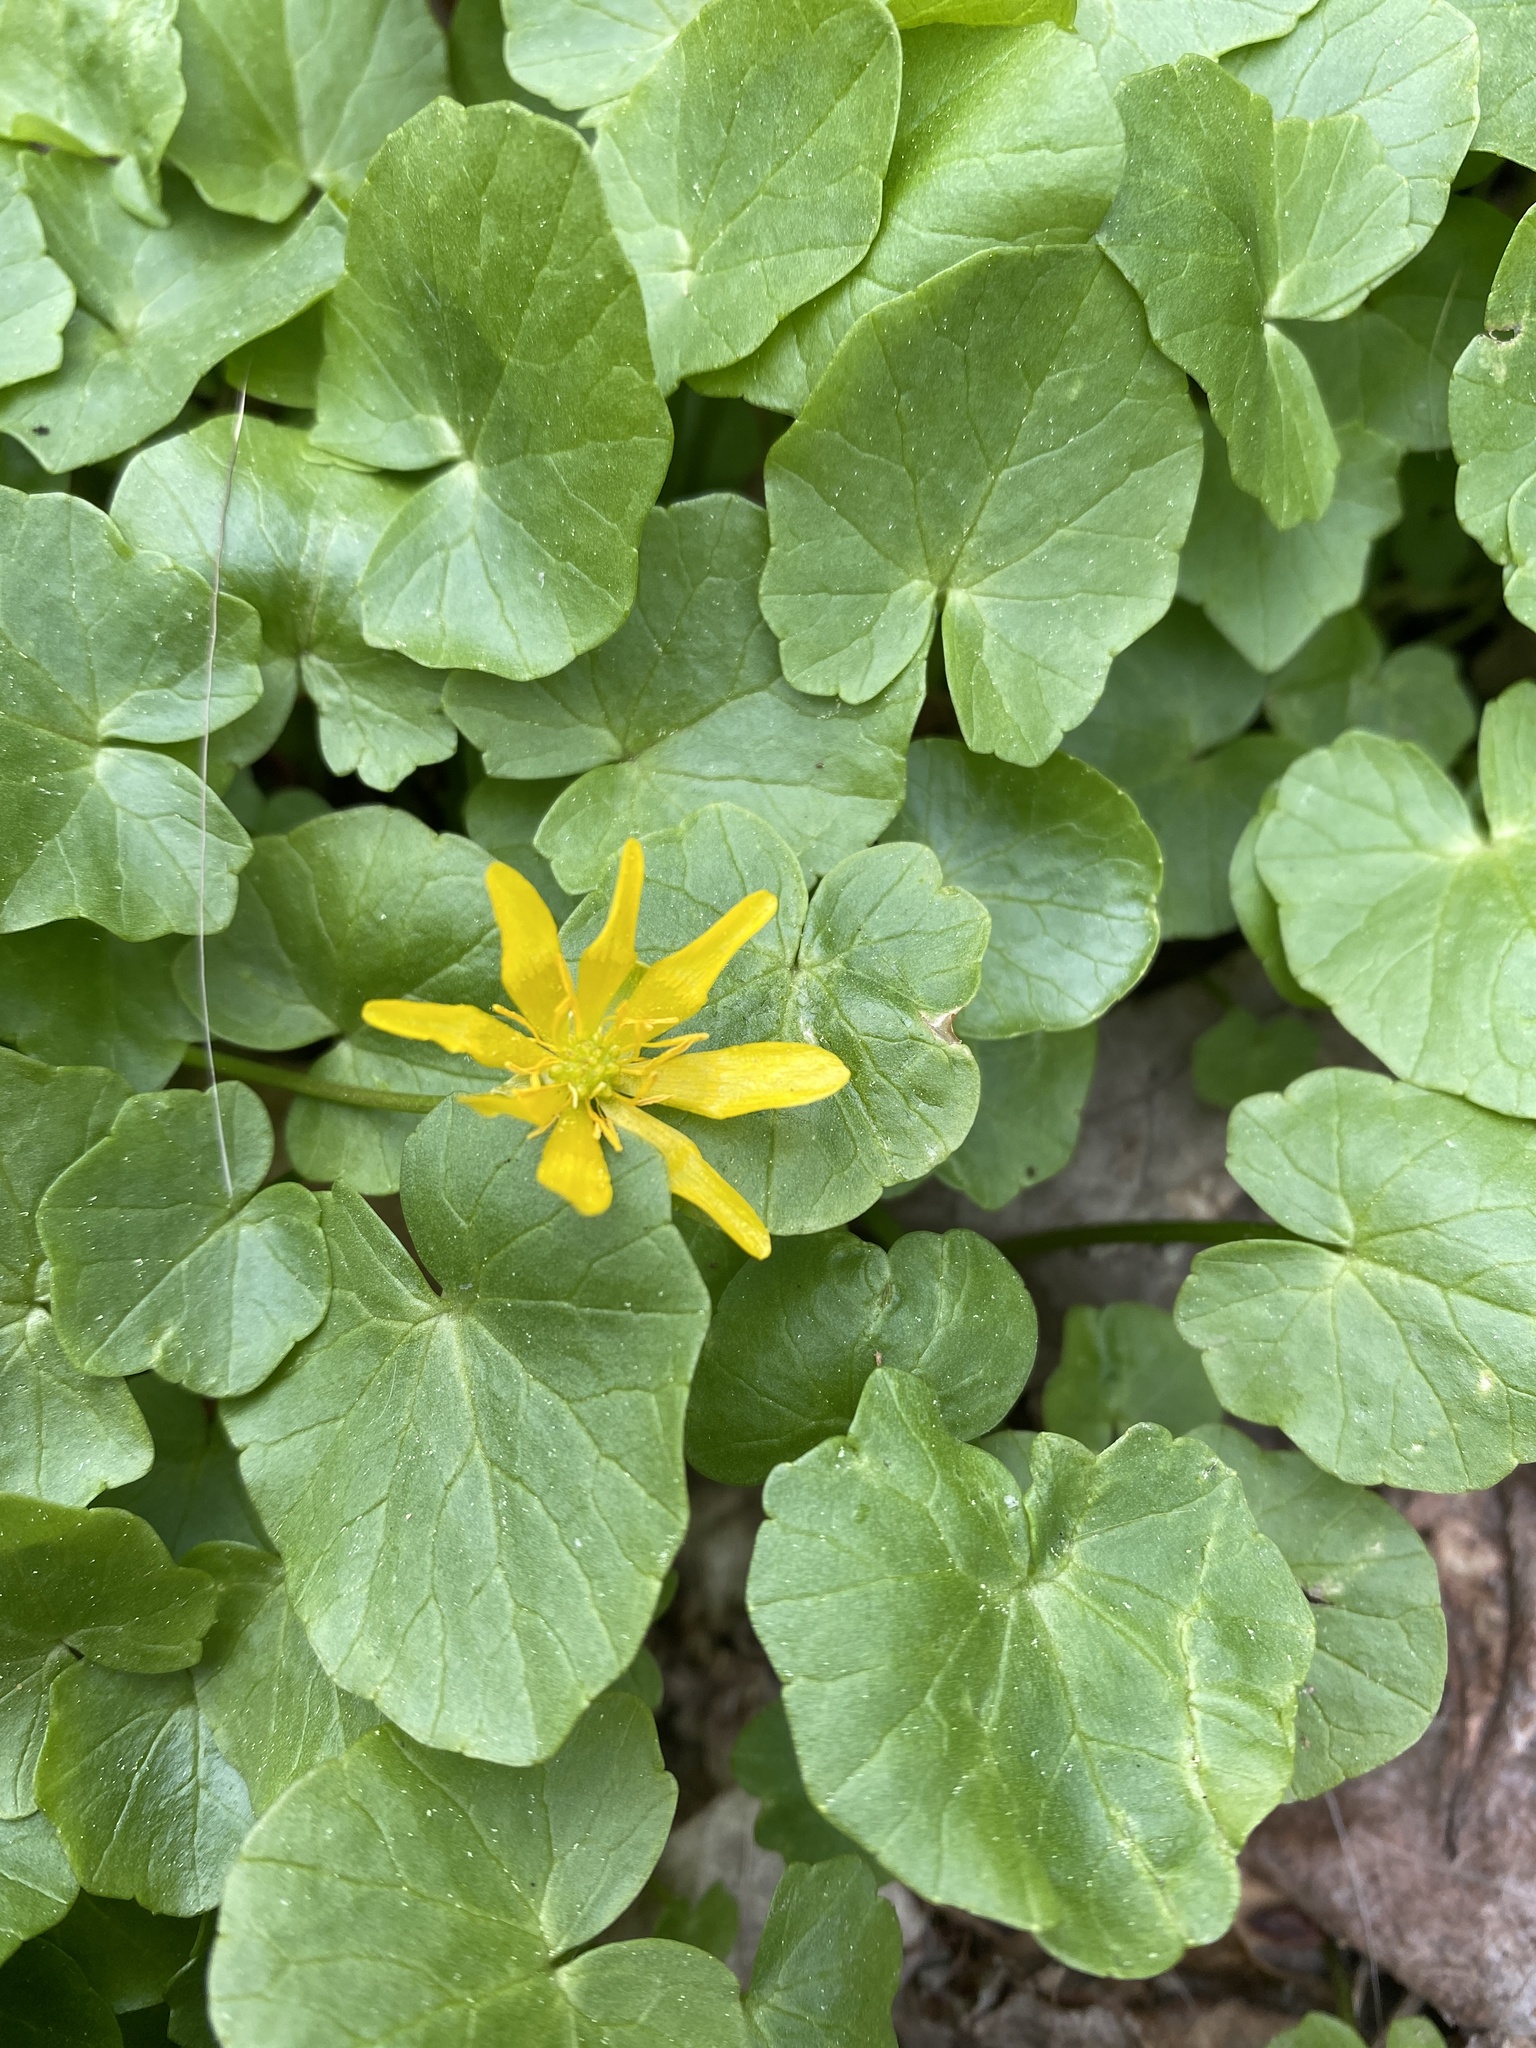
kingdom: Plantae
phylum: Tracheophyta
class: Magnoliopsida
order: Ranunculales
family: Ranunculaceae
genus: Ficaria
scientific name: Ficaria verna
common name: Lesser celandine
